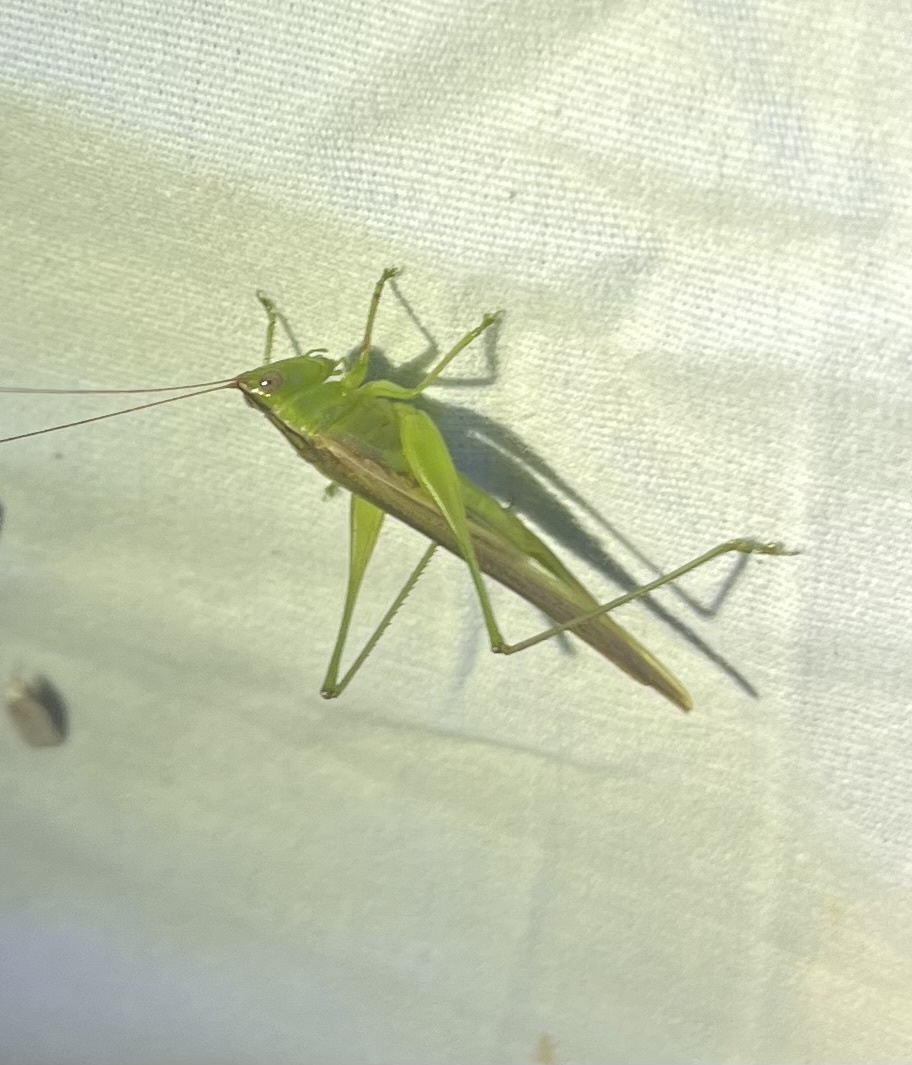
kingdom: Animalia
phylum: Arthropoda
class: Insecta
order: Orthoptera
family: Tettigoniidae
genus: Conocephalus
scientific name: Conocephalus fasciatus
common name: Slender meadow katydid
